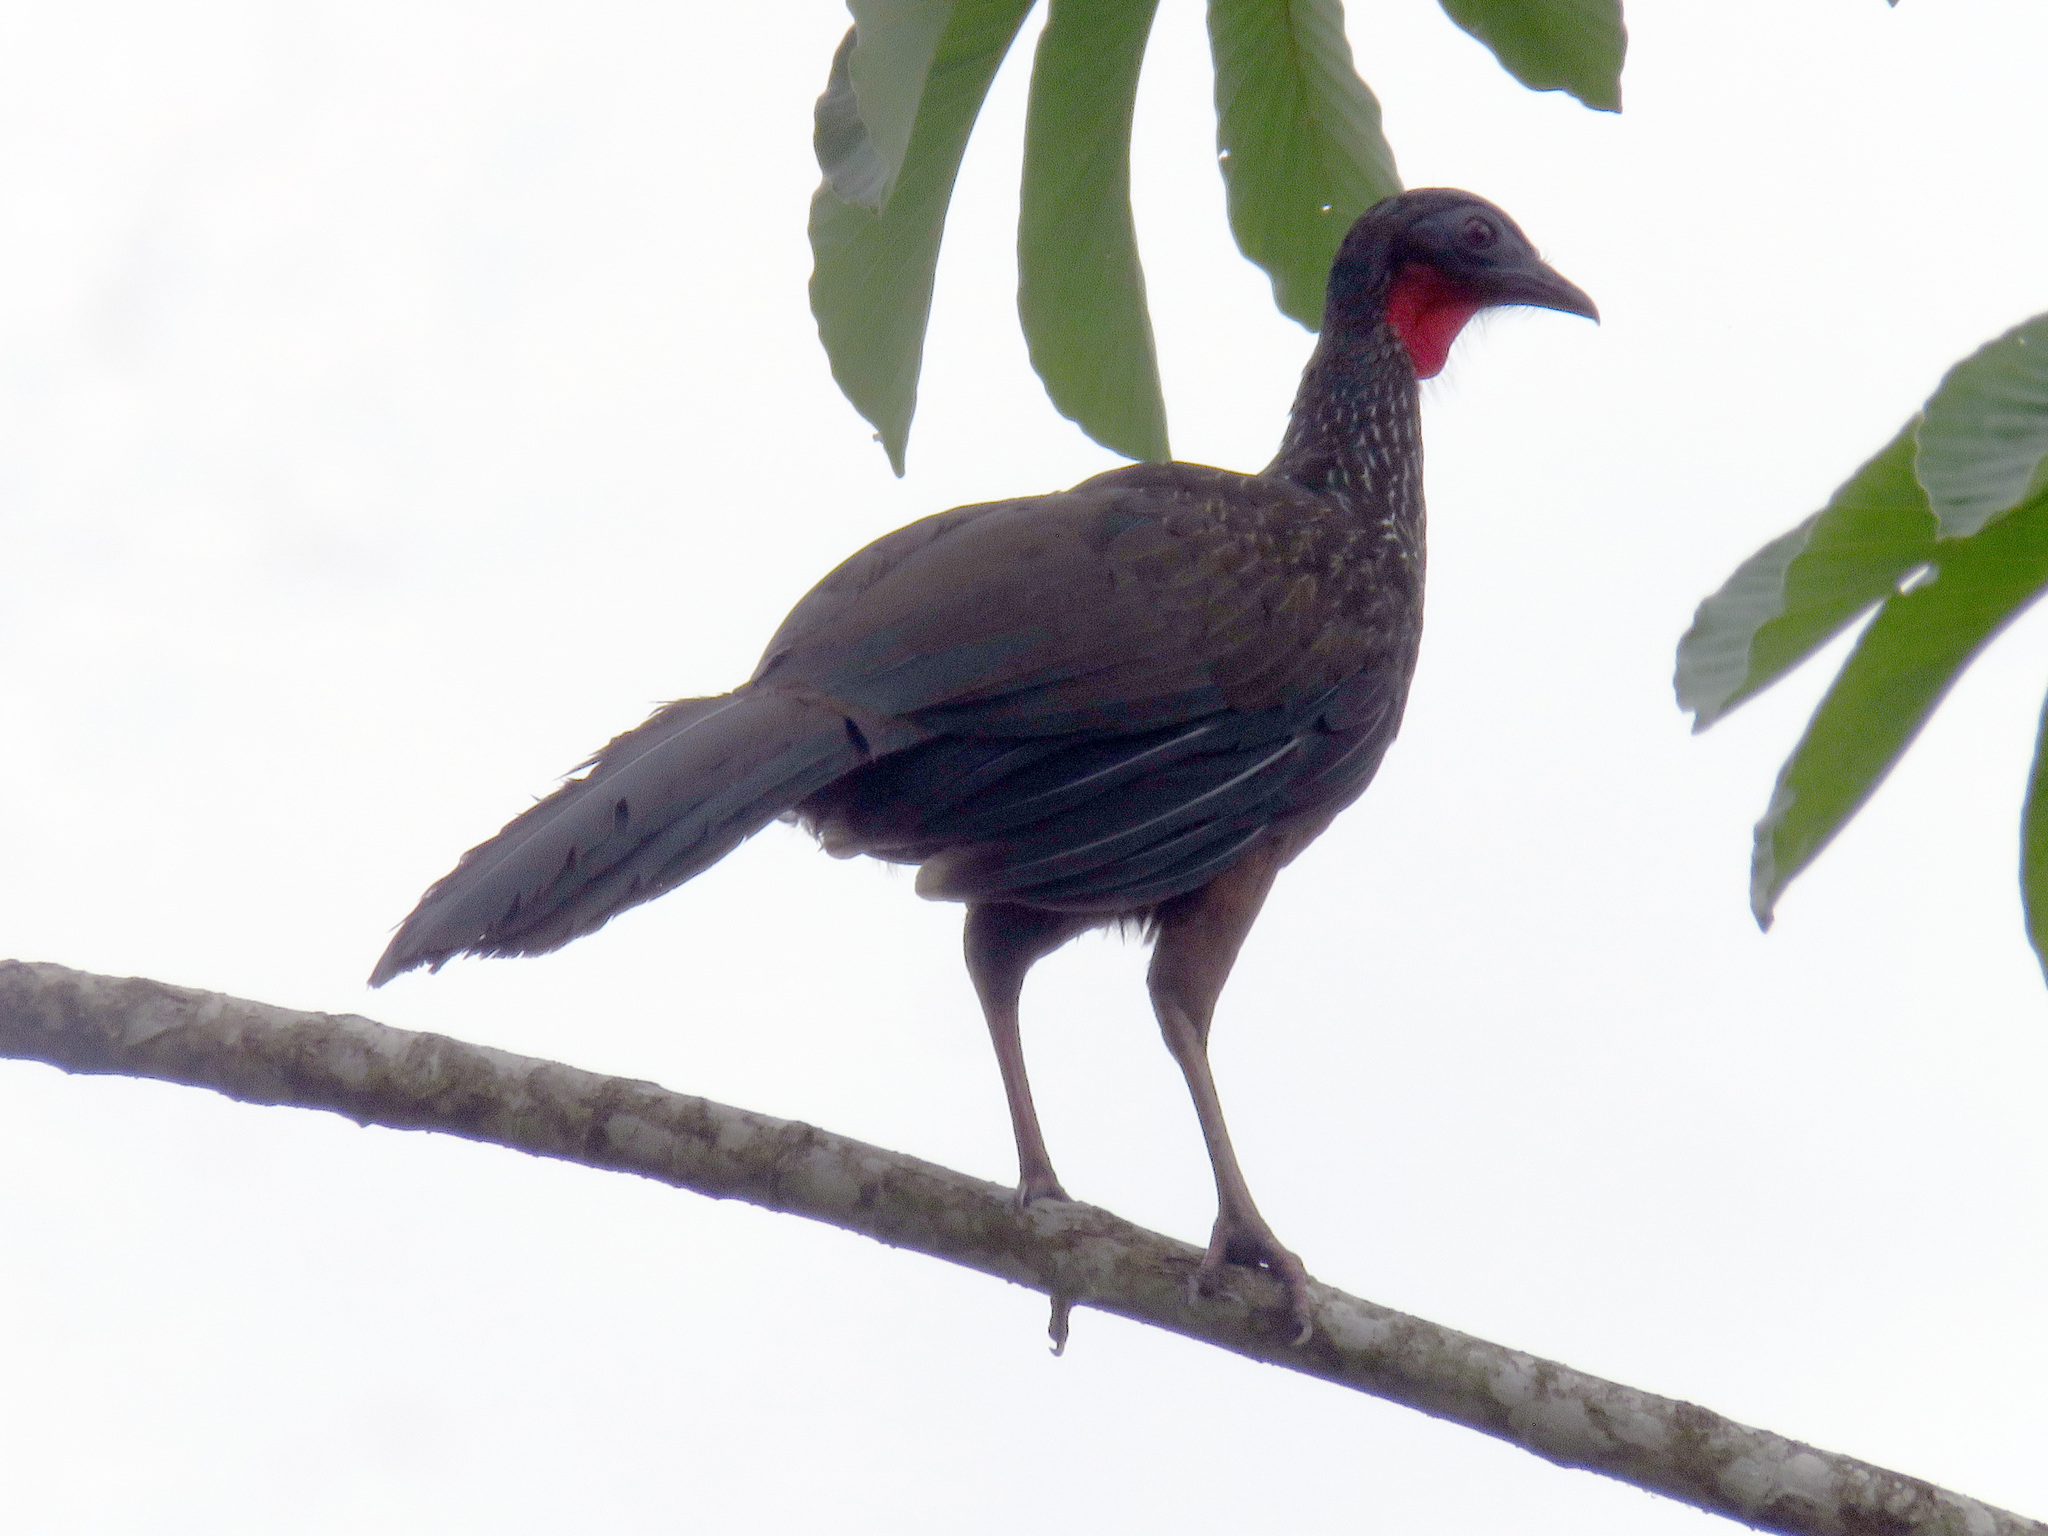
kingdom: Animalia
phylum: Chordata
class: Aves
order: Galliformes
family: Cracidae
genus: Penelope
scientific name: Penelope jacquacu
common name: Spix's guan
